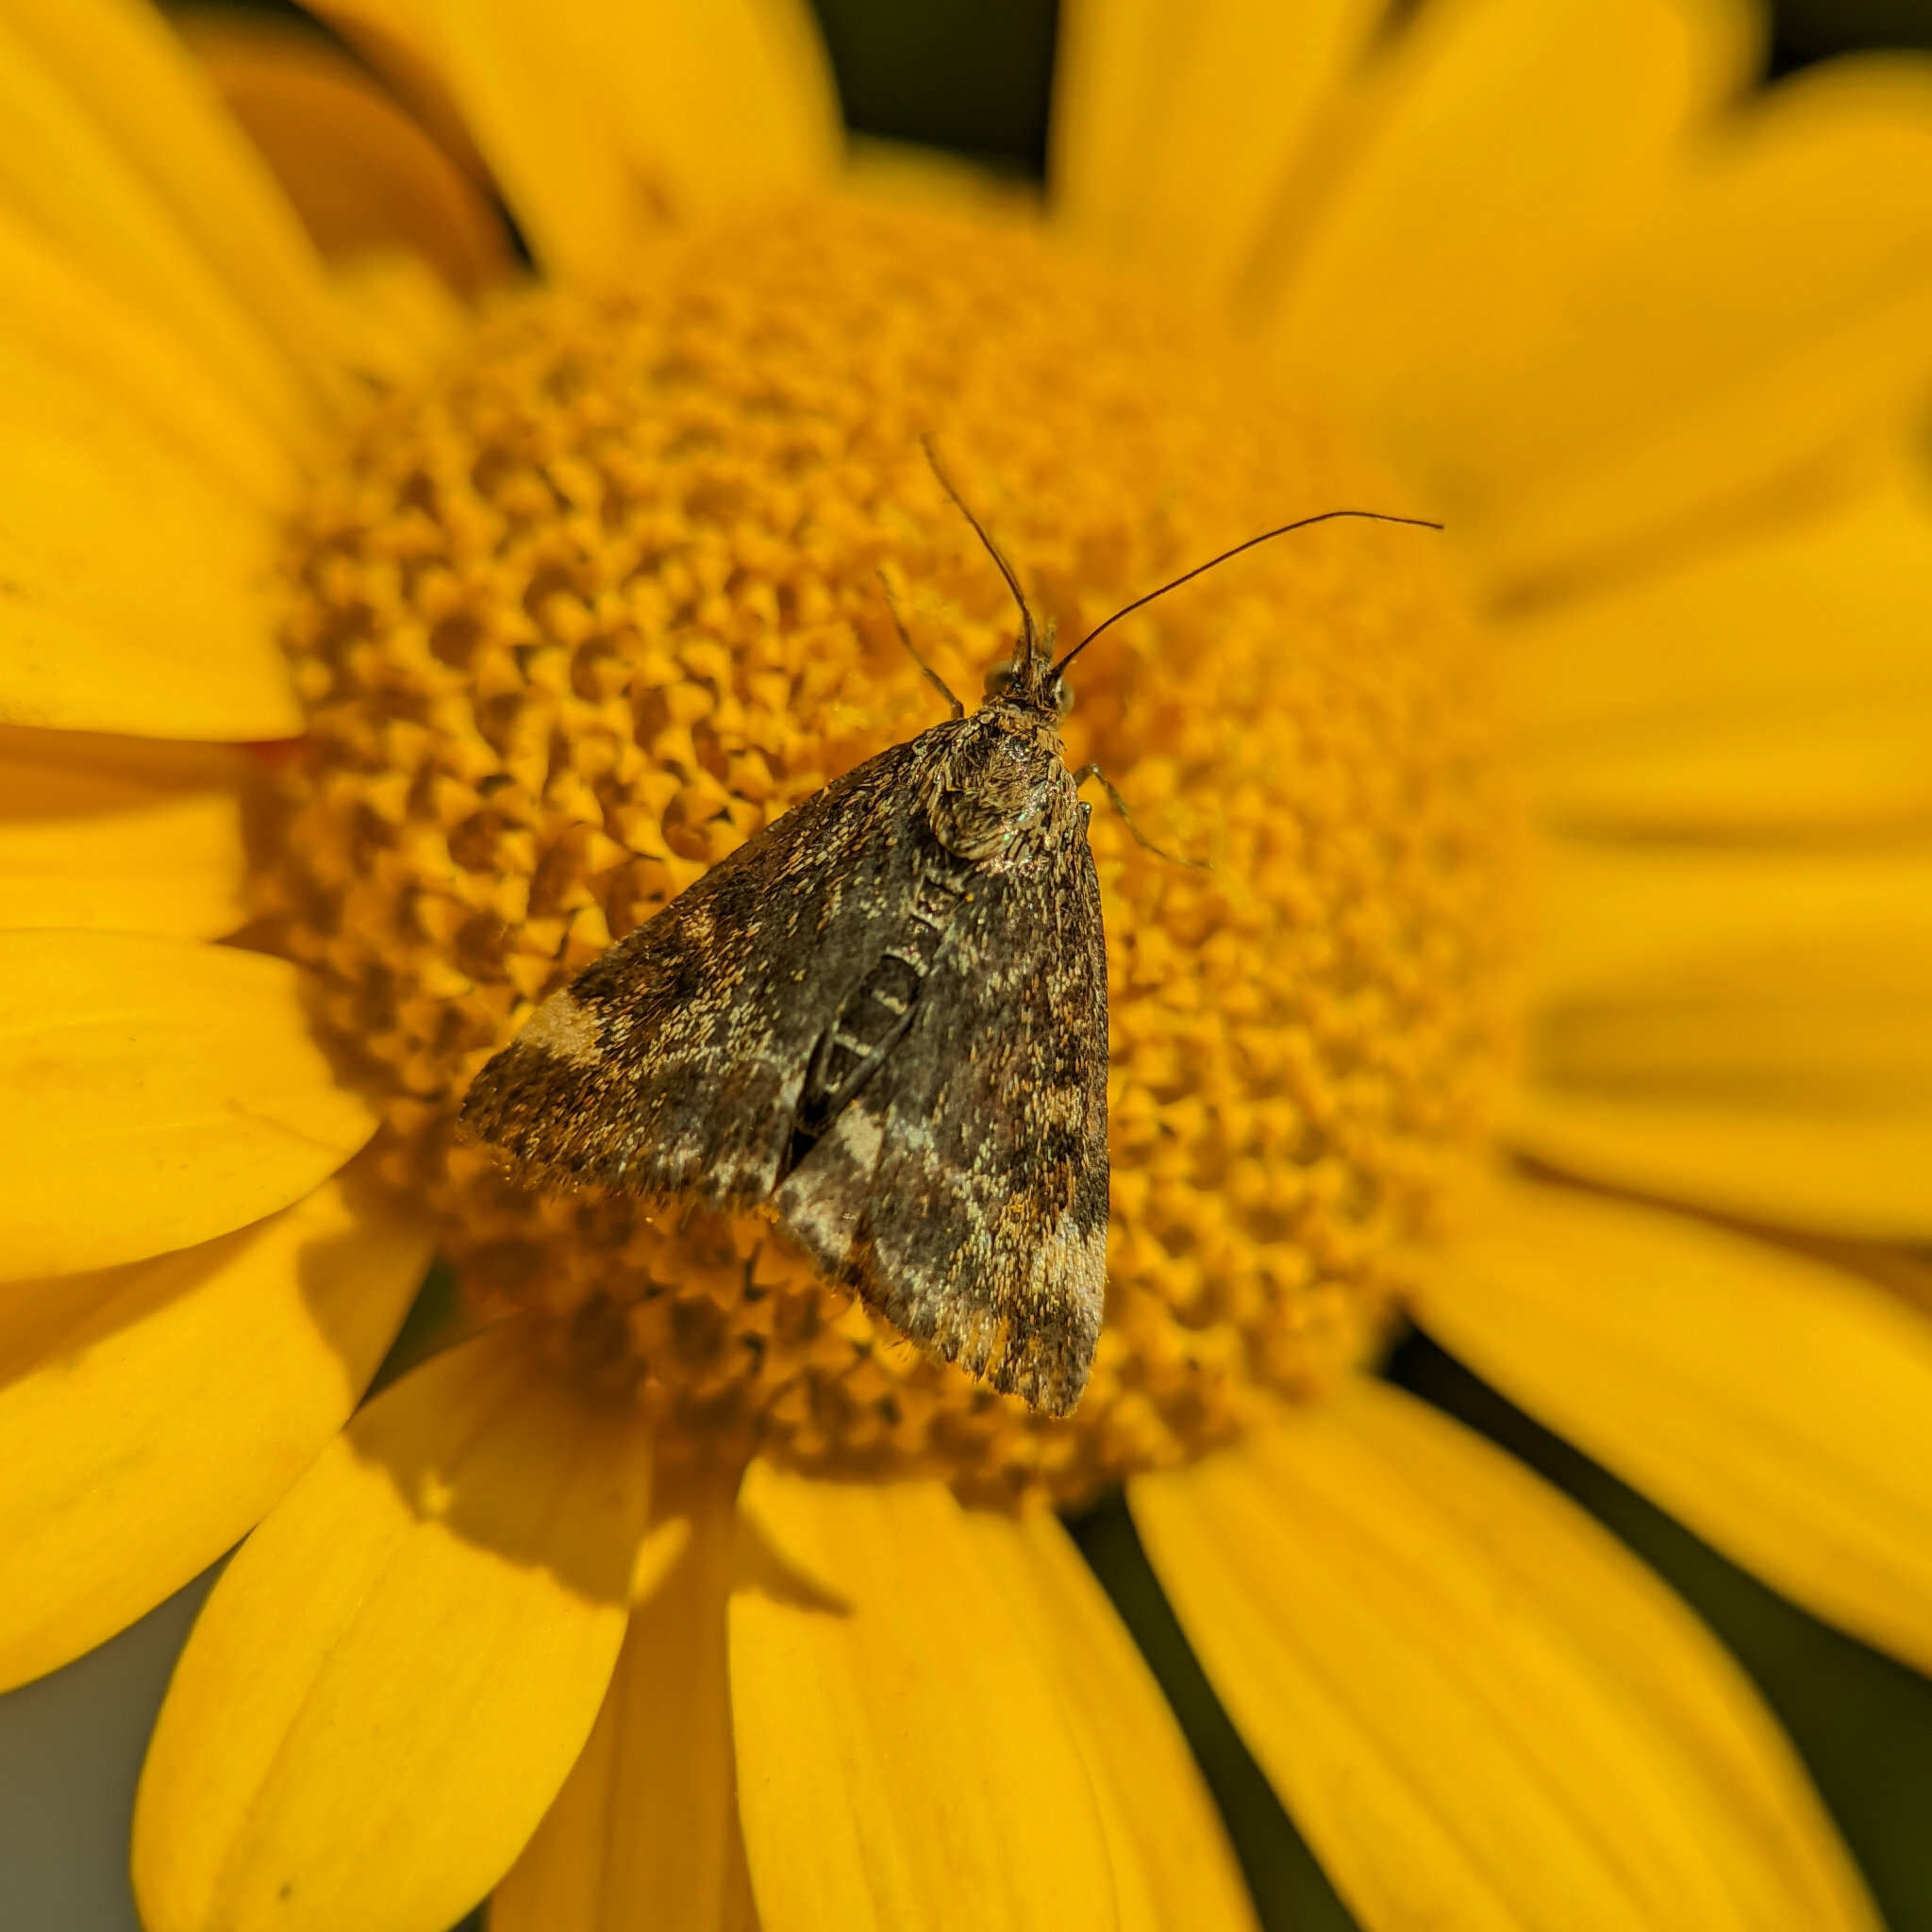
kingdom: Animalia
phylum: Arthropoda
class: Insecta
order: Lepidoptera
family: Crambidae
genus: Pyrausta
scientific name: Pyrausta despicata
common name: Straw-barred pearl
